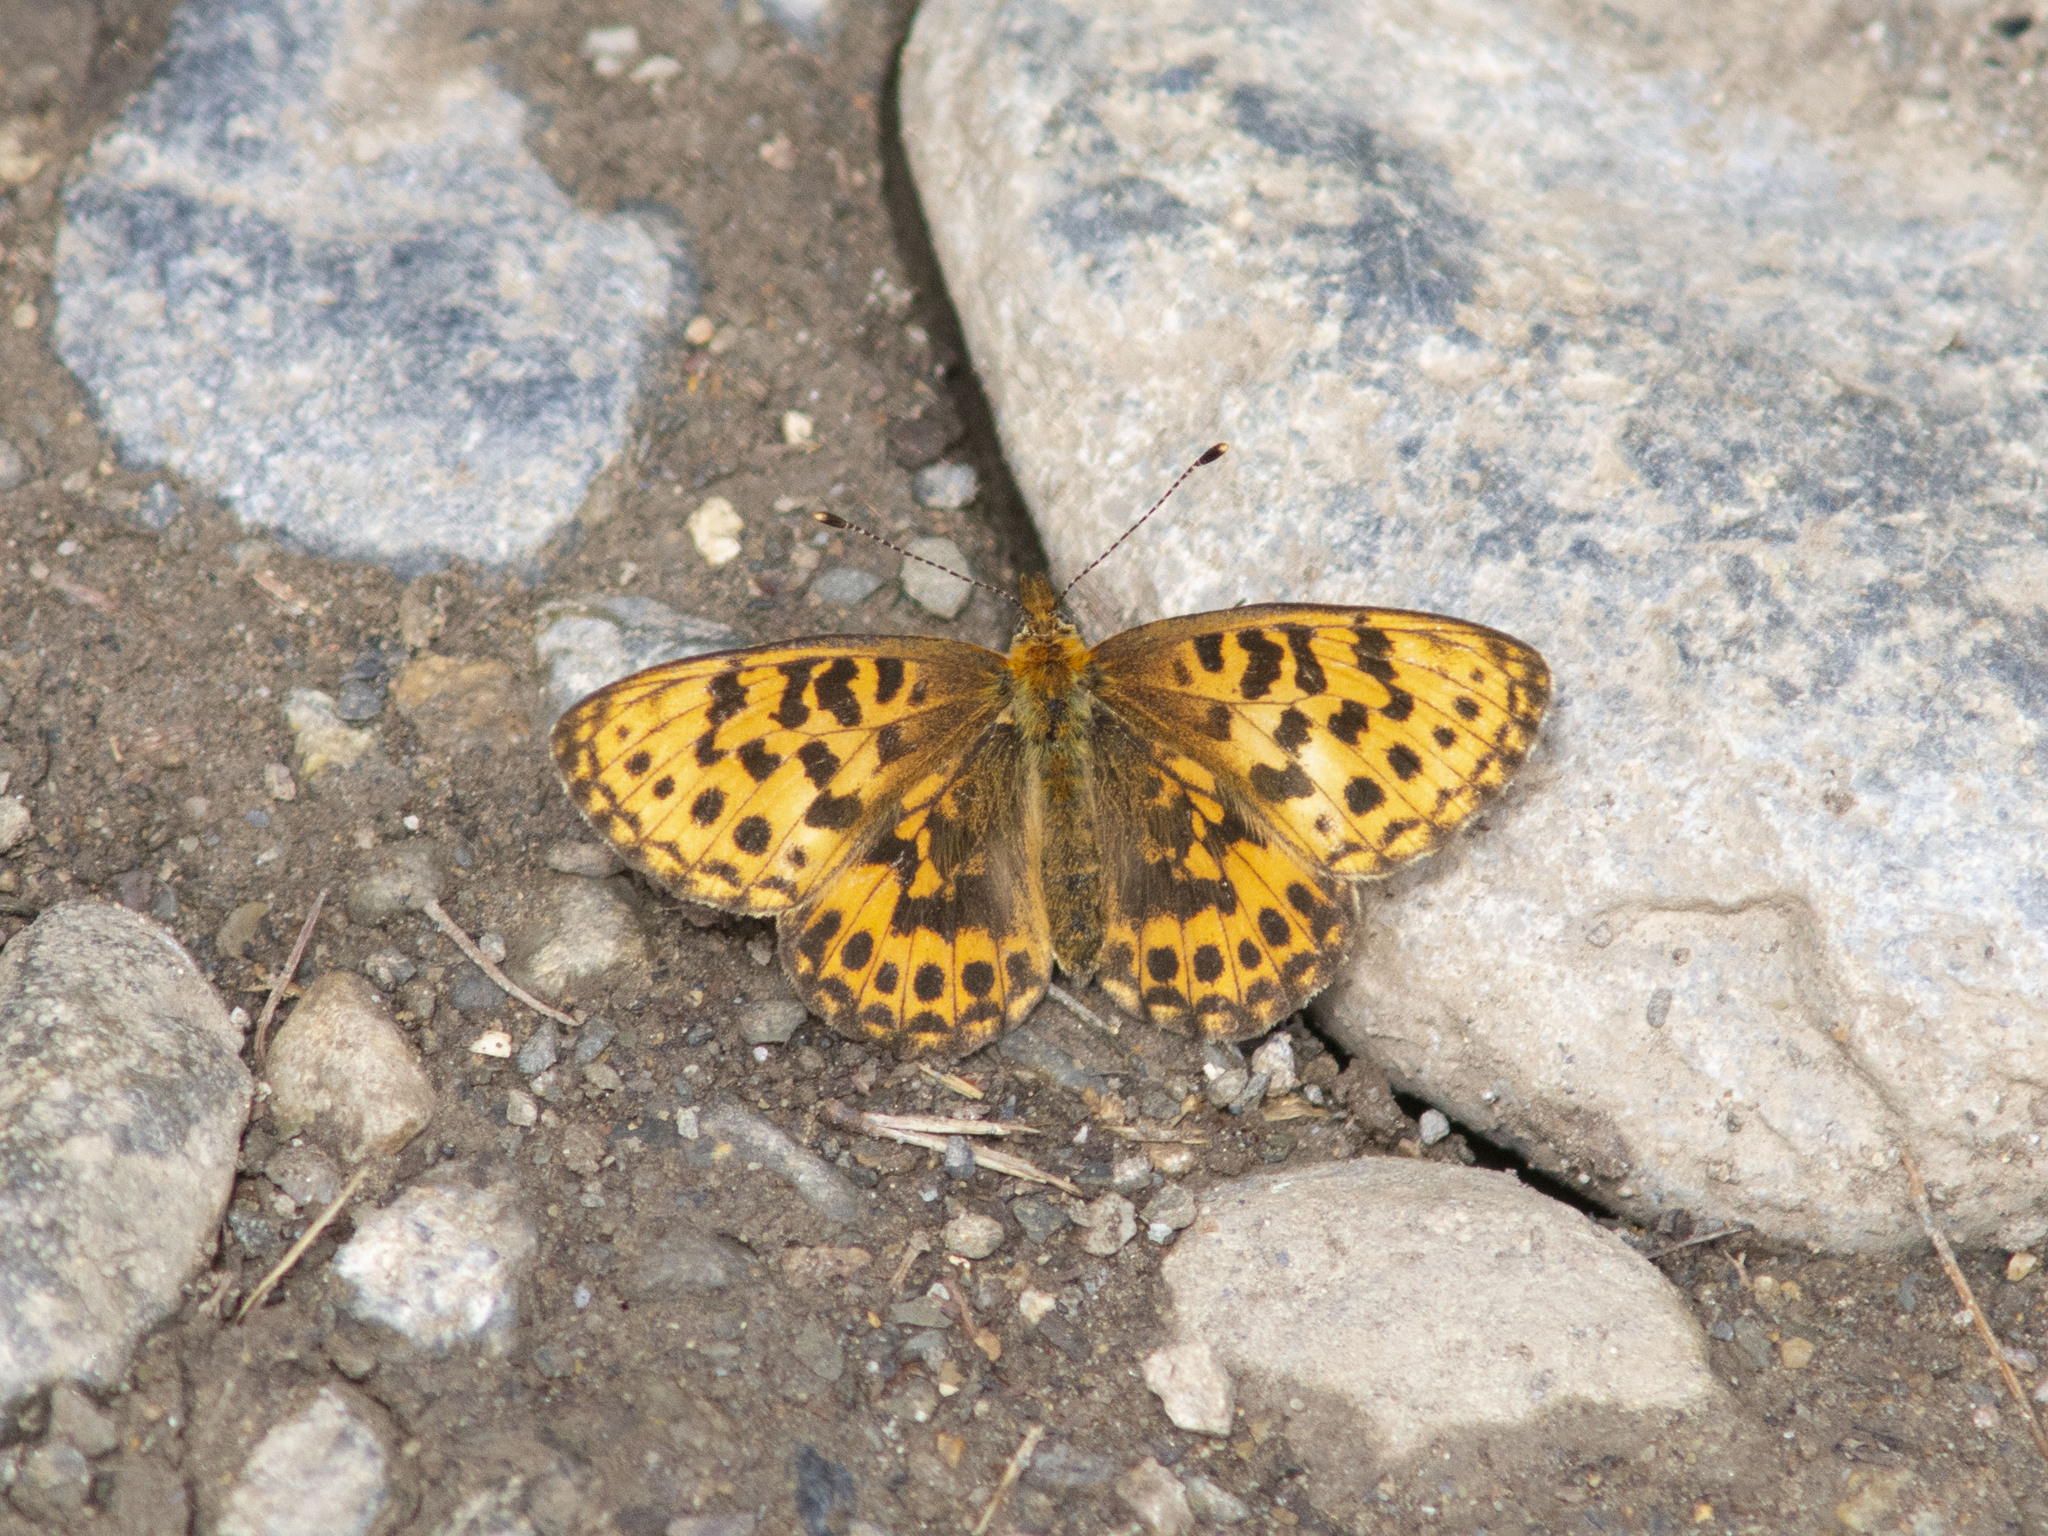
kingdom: Animalia
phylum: Arthropoda
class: Insecta
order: Lepidoptera
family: Nymphalidae
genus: Boloria
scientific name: Boloria thore
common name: Thor's fritillary
